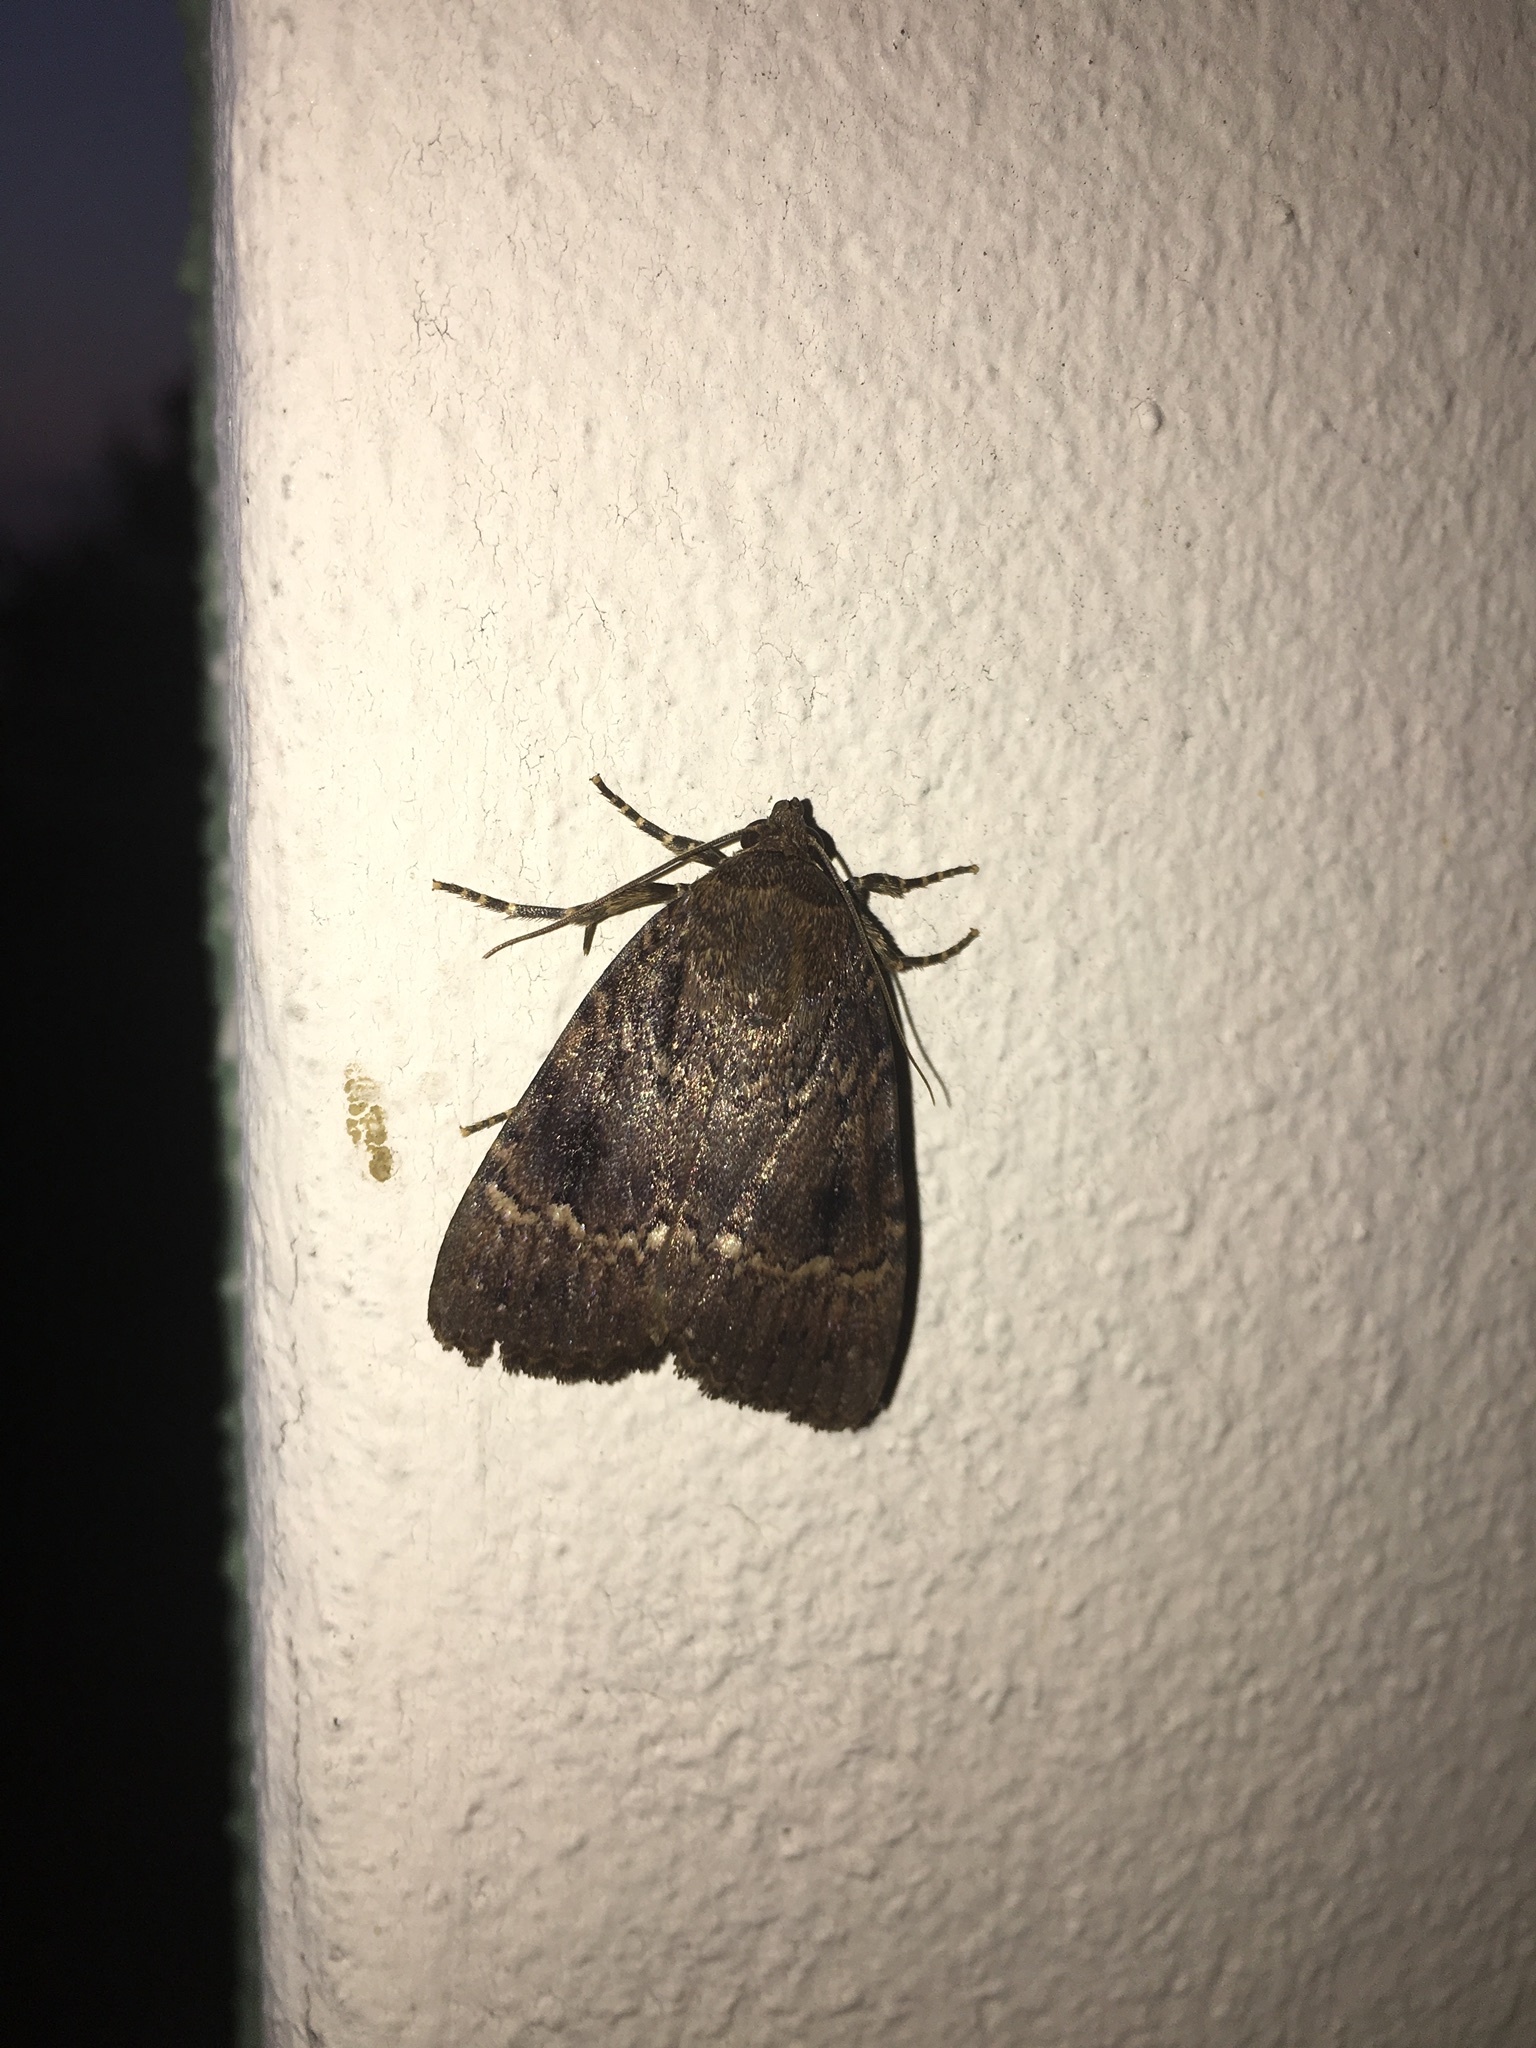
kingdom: Animalia
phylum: Arthropoda
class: Insecta
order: Lepidoptera
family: Noctuidae
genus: Amphipyra
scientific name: Amphipyra pyramidea
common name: Copper underwing
